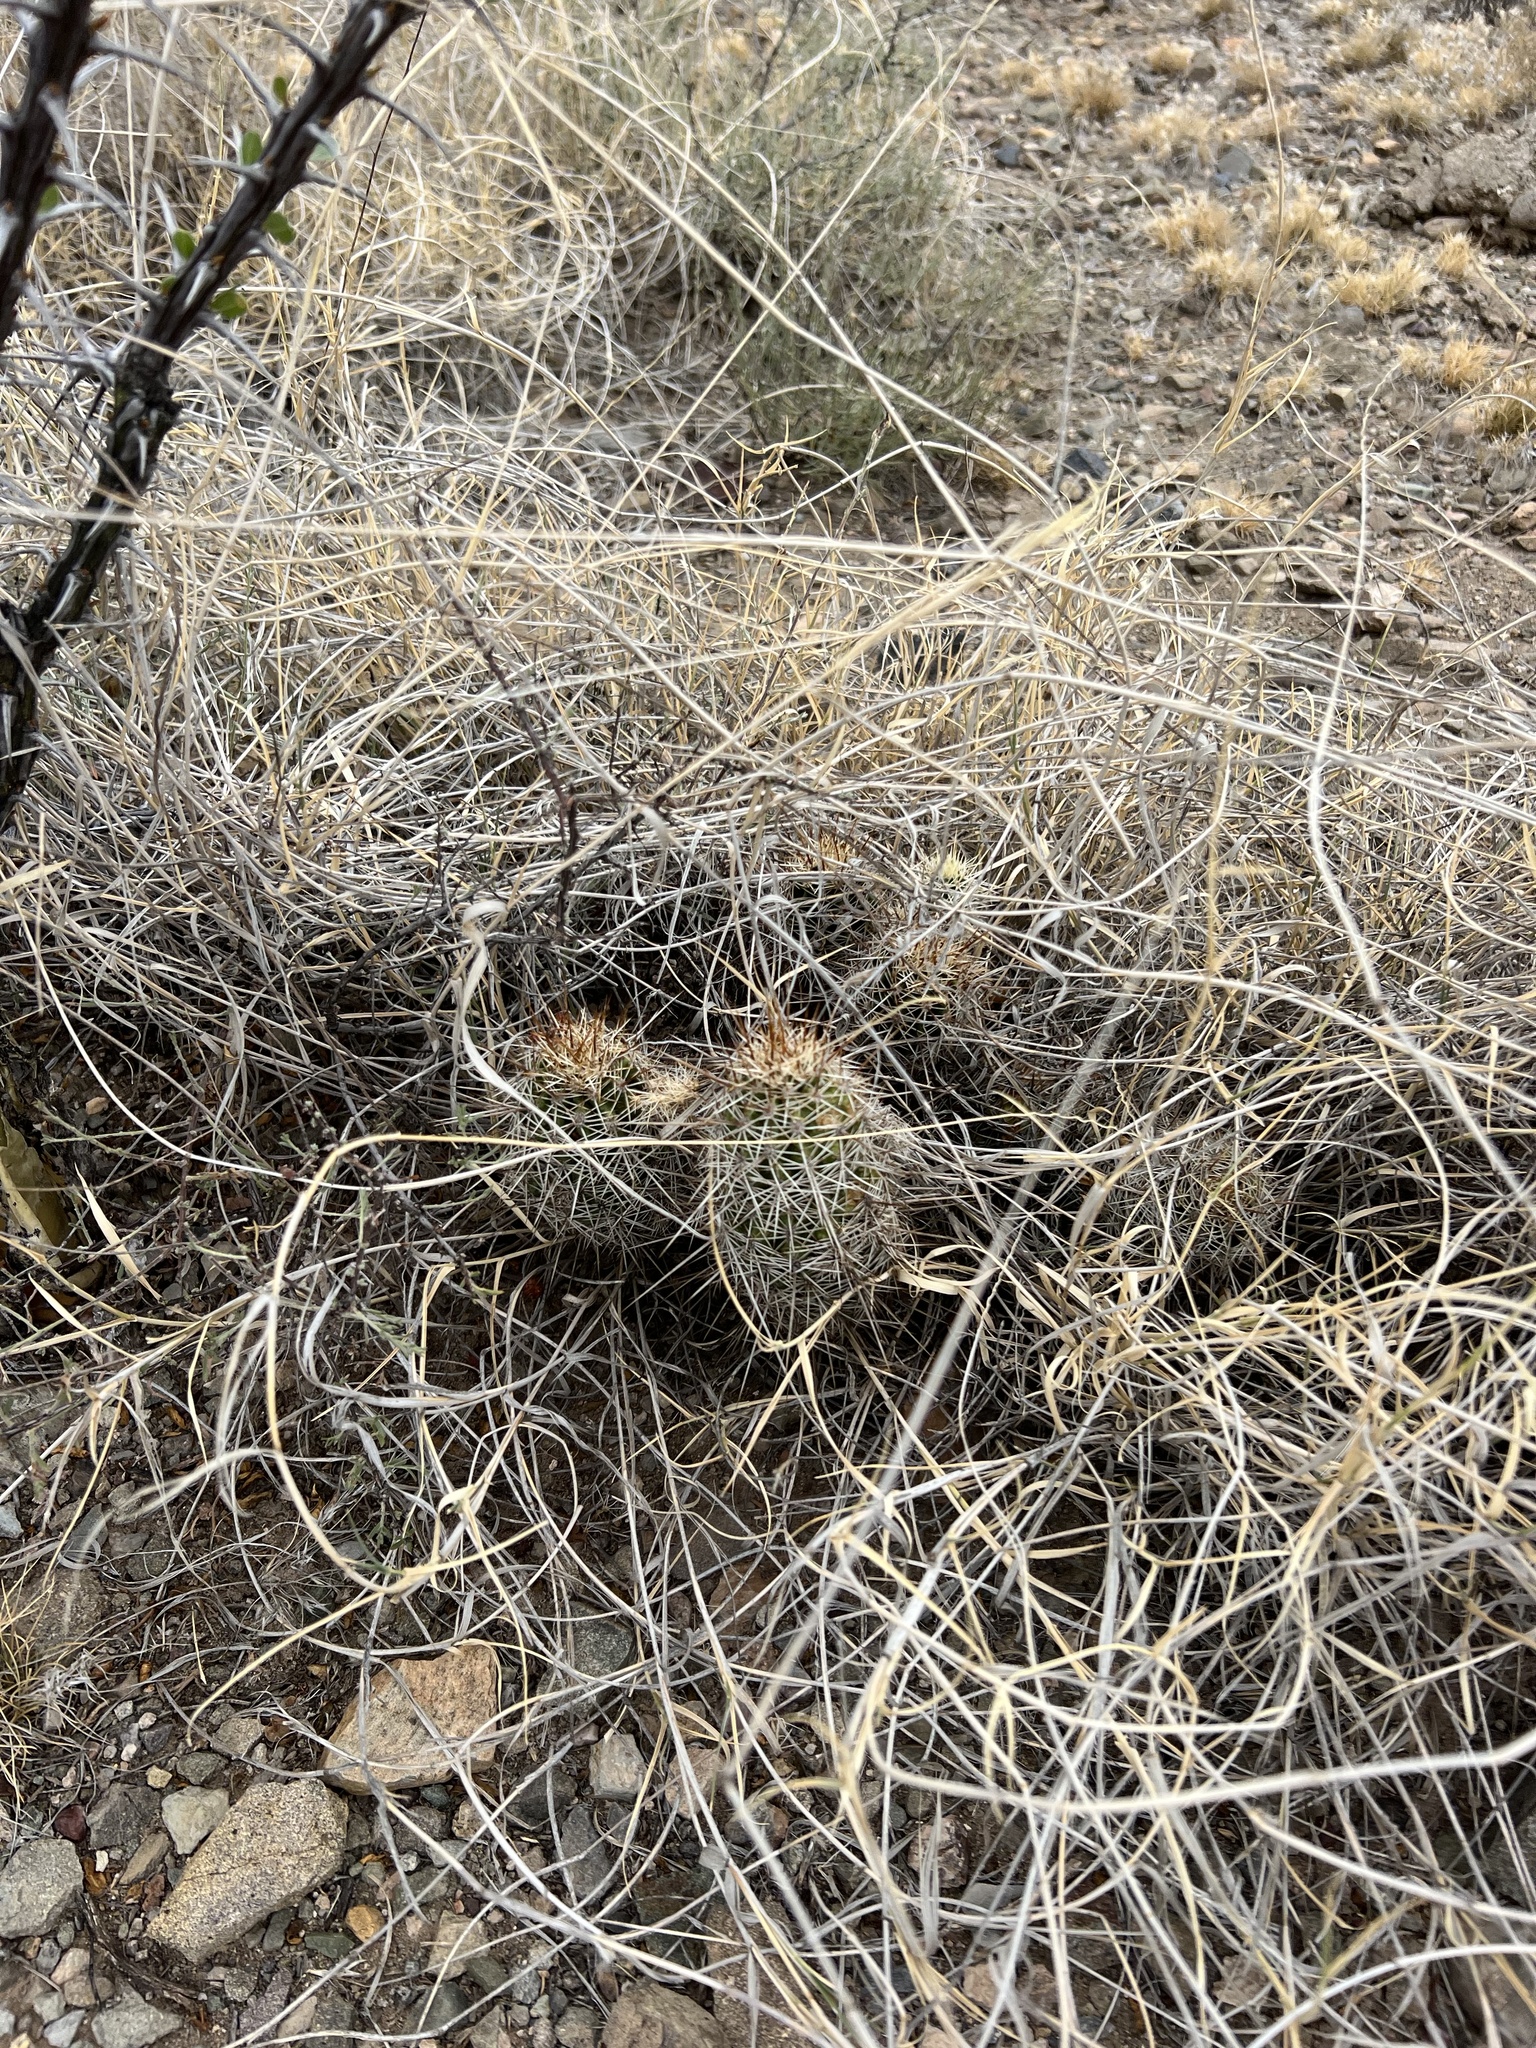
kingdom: Plantae
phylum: Tracheophyta
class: Magnoliopsida
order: Caryophyllales
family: Cactaceae
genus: Echinocereus
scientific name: Echinocereus fasciculatus
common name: Bundle hedgehog
